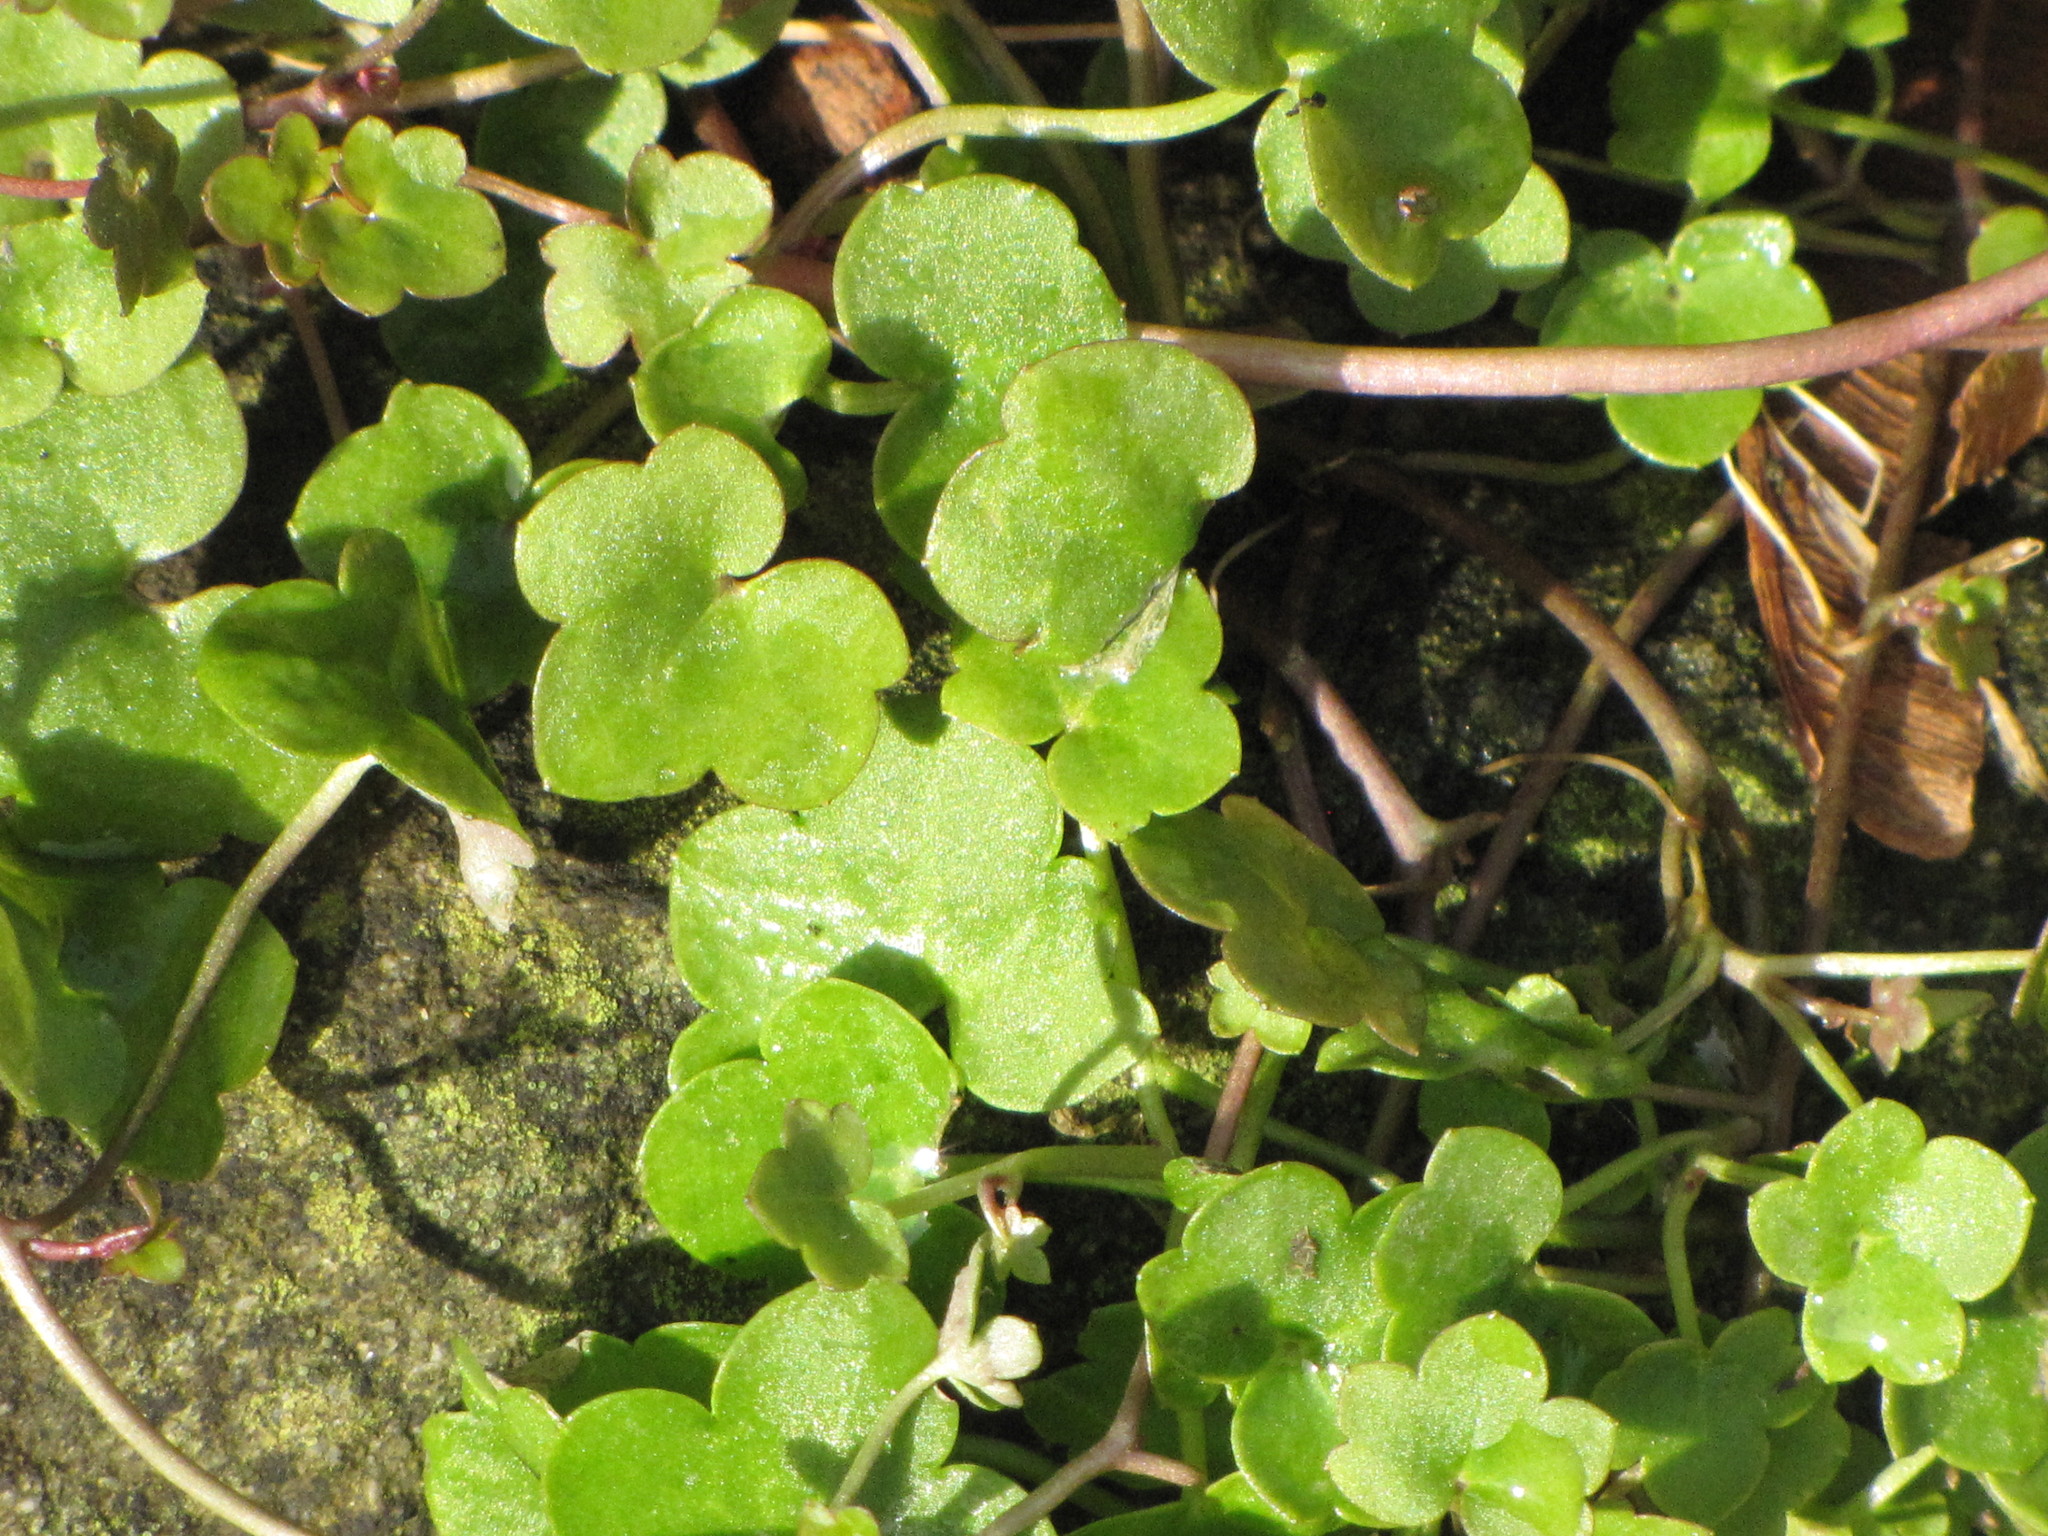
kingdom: Plantae
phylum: Tracheophyta
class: Magnoliopsida
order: Lamiales
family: Plantaginaceae
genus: Cymbalaria
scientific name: Cymbalaria muralis
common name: Ivy-leaved toadflax
